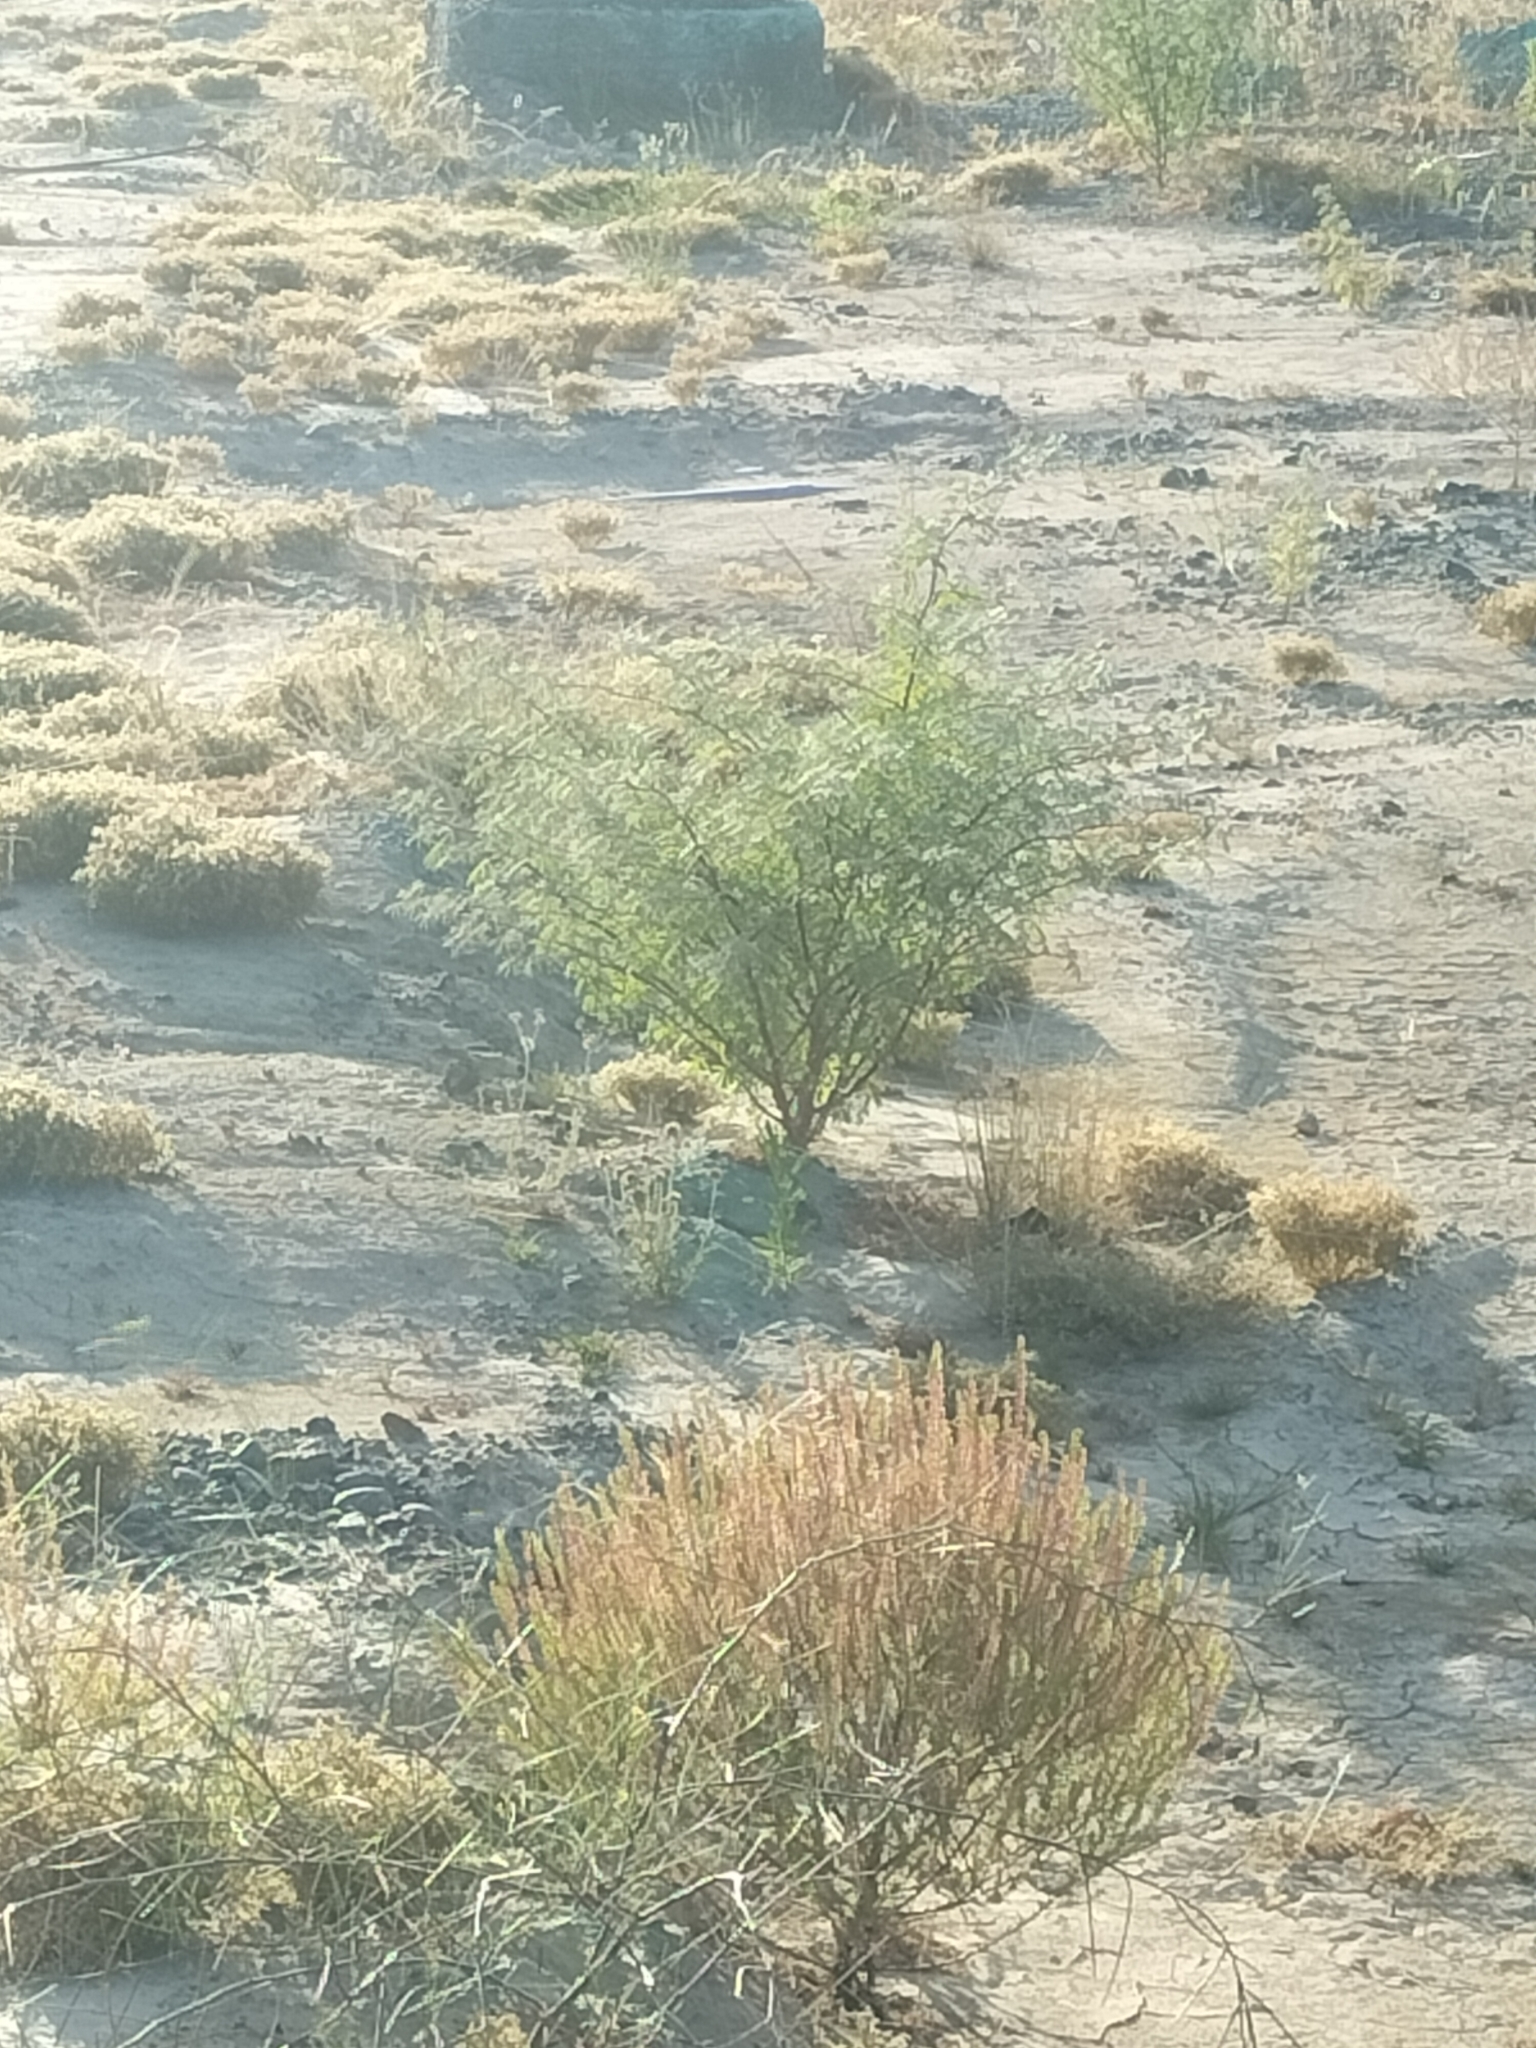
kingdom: Plantae
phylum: Tracheophyta
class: Magnoliopsida
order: Fabales
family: Fabaceae
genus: Lupinus
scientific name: Lupinus arboreus
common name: Yellow bush lupine
